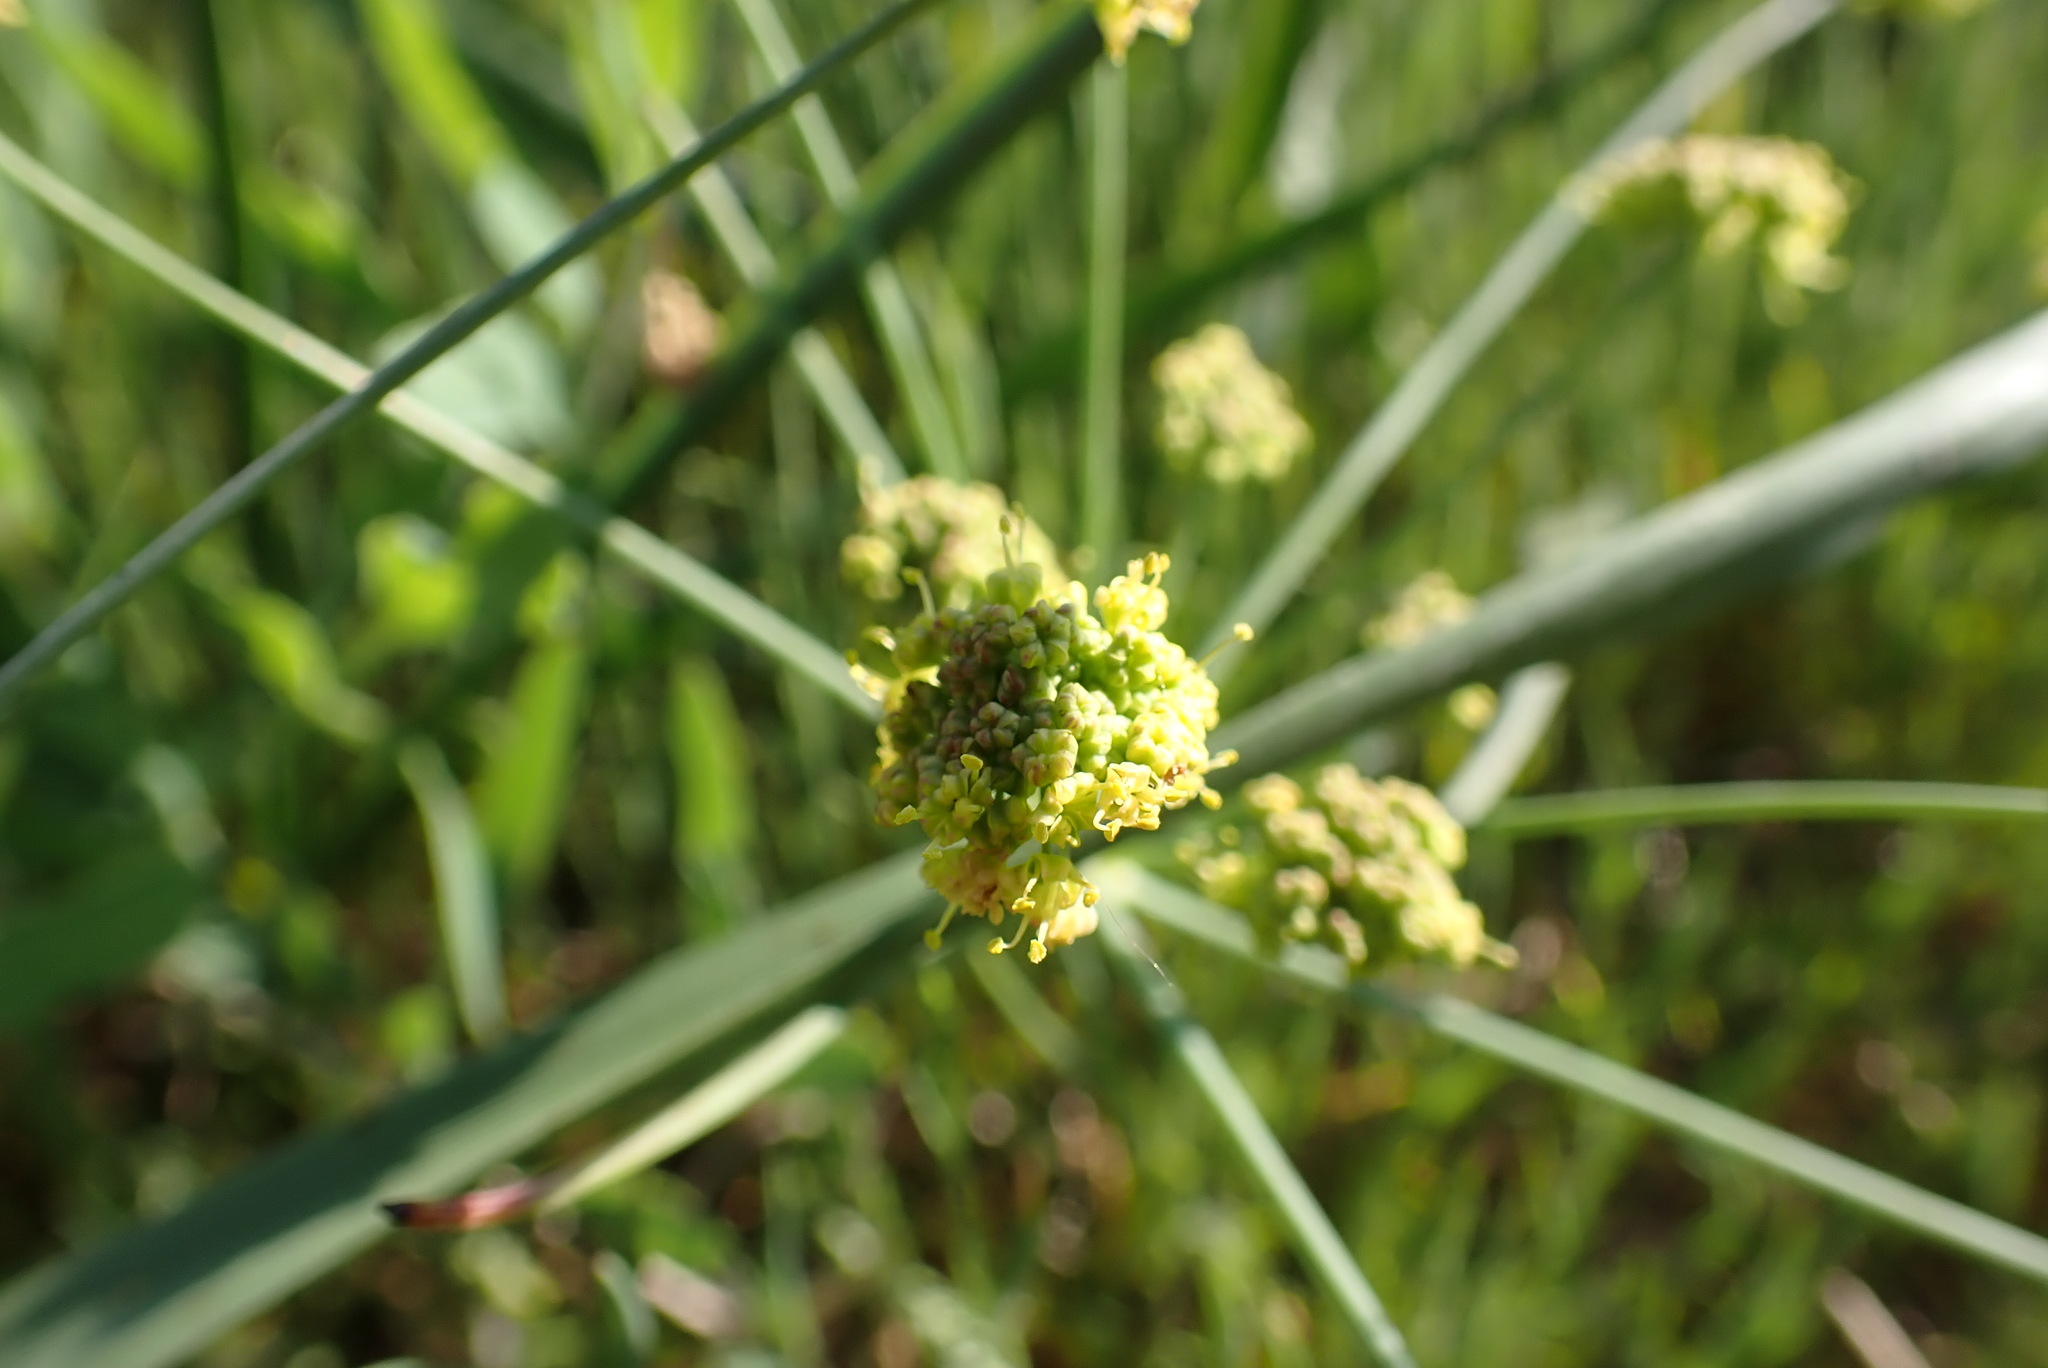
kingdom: Plantae
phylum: Tracheophyta
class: Magnoliopsida
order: Apiales
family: Apiaceae
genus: Lomatium
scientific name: Lomatium nudicaule
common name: Pestle lomatium
